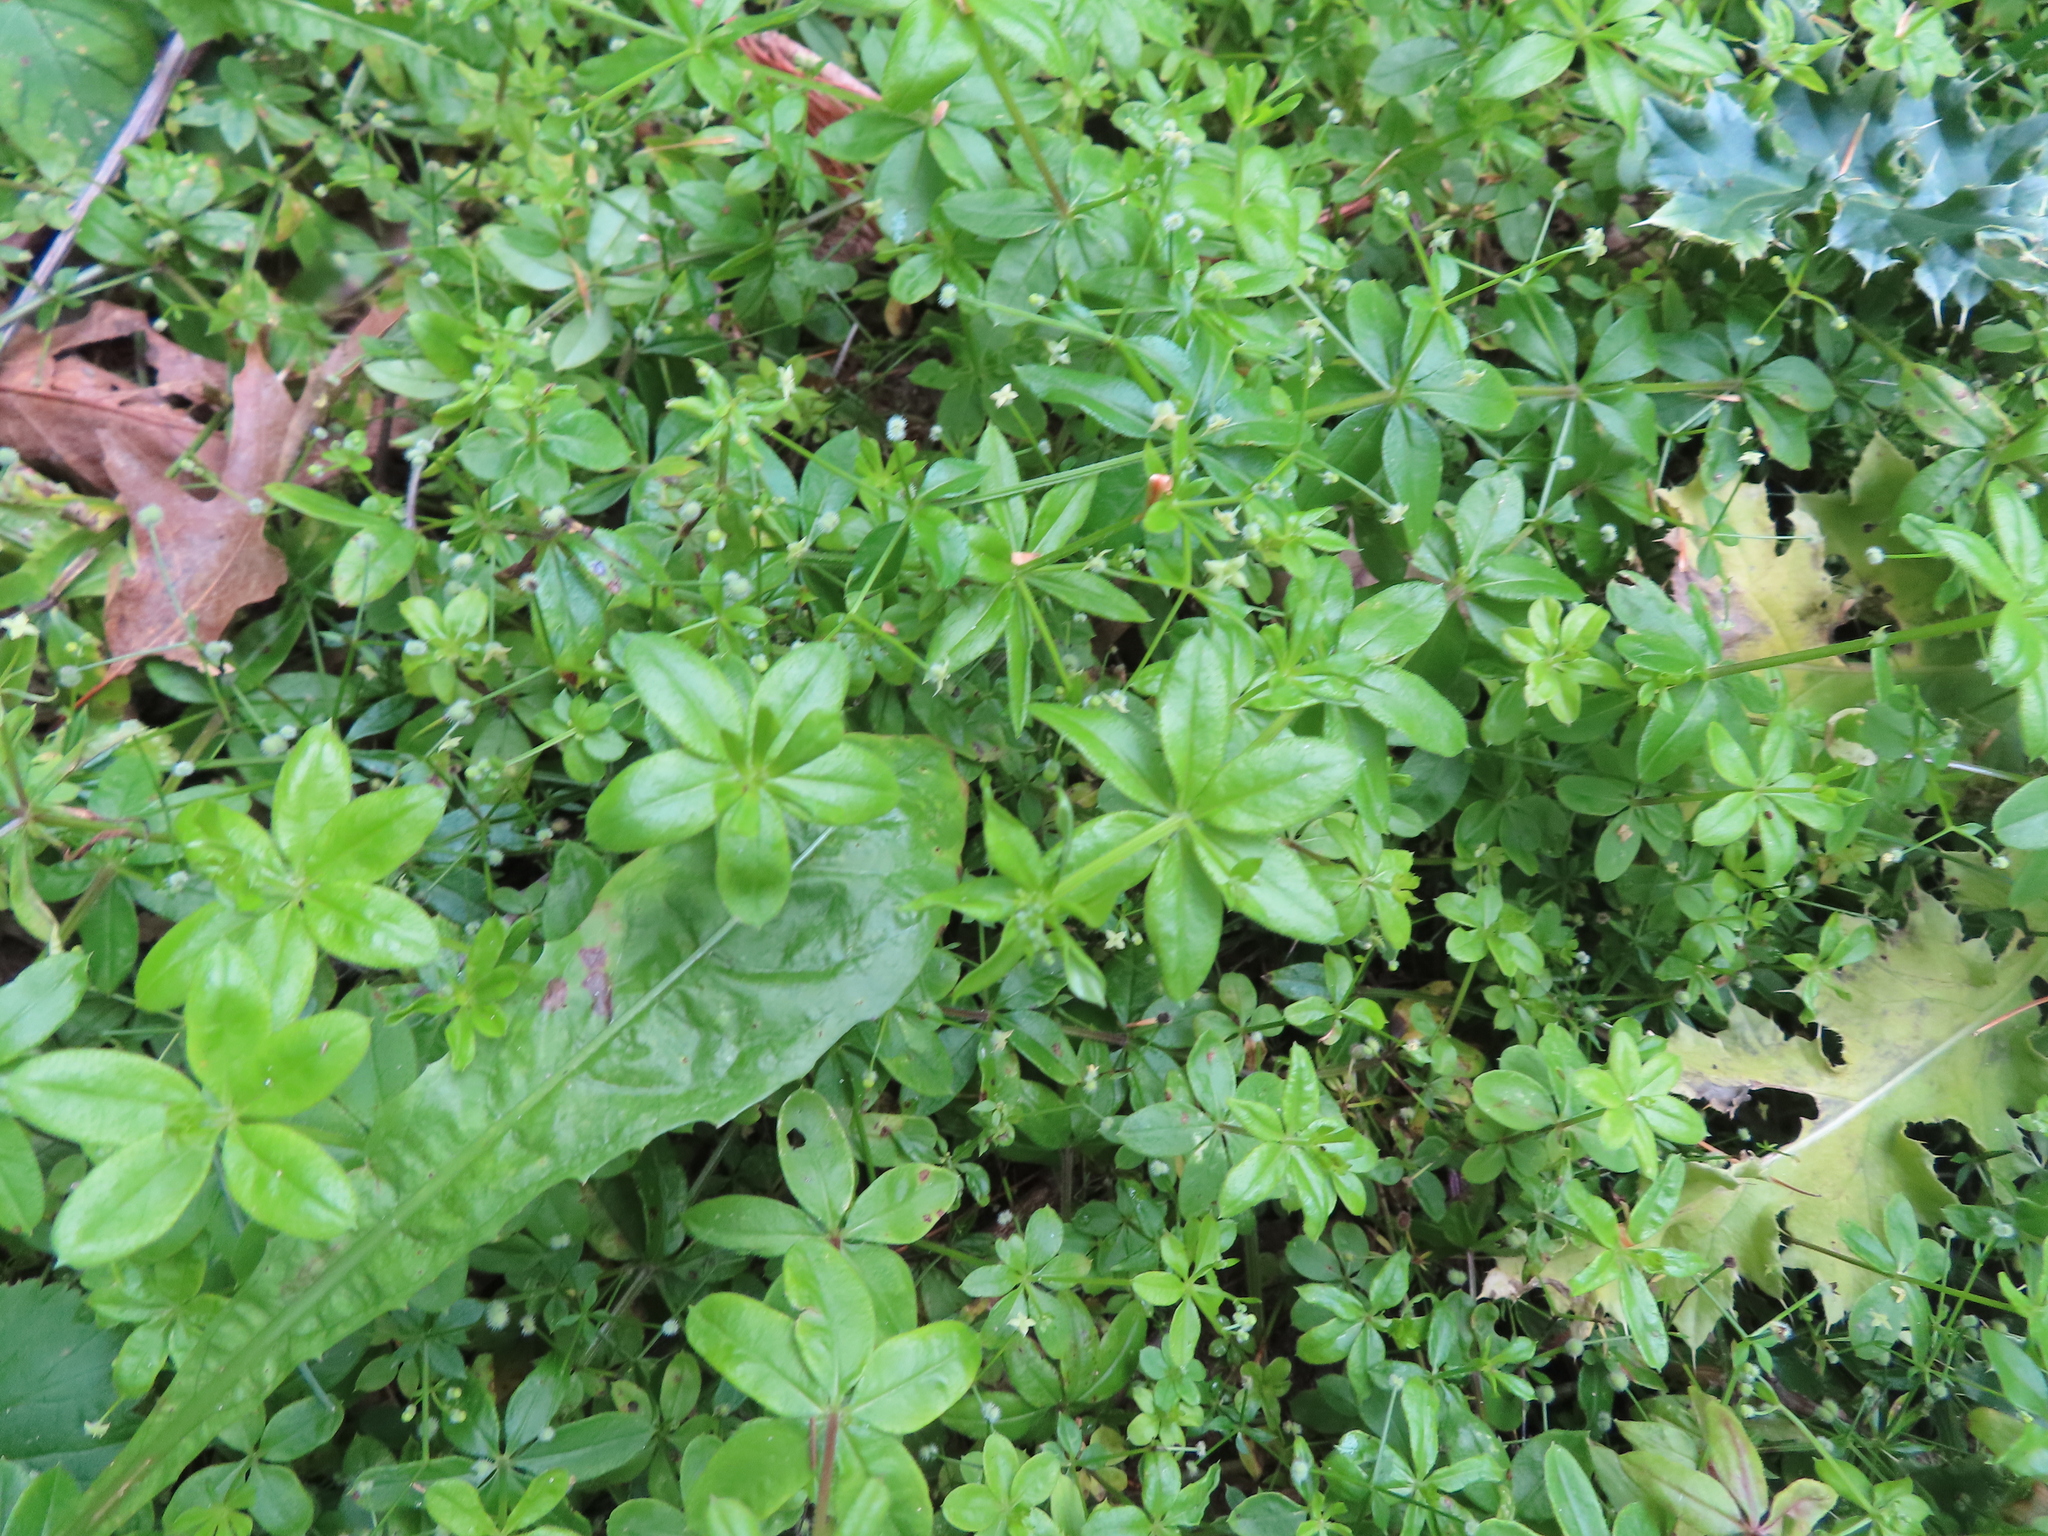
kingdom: Plantae
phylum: Tracheophyta
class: Magnoliopsida
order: Gentianales
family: Rubiaceae
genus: Galium
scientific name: Galium triflorum
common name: Fragrant bedstraw
